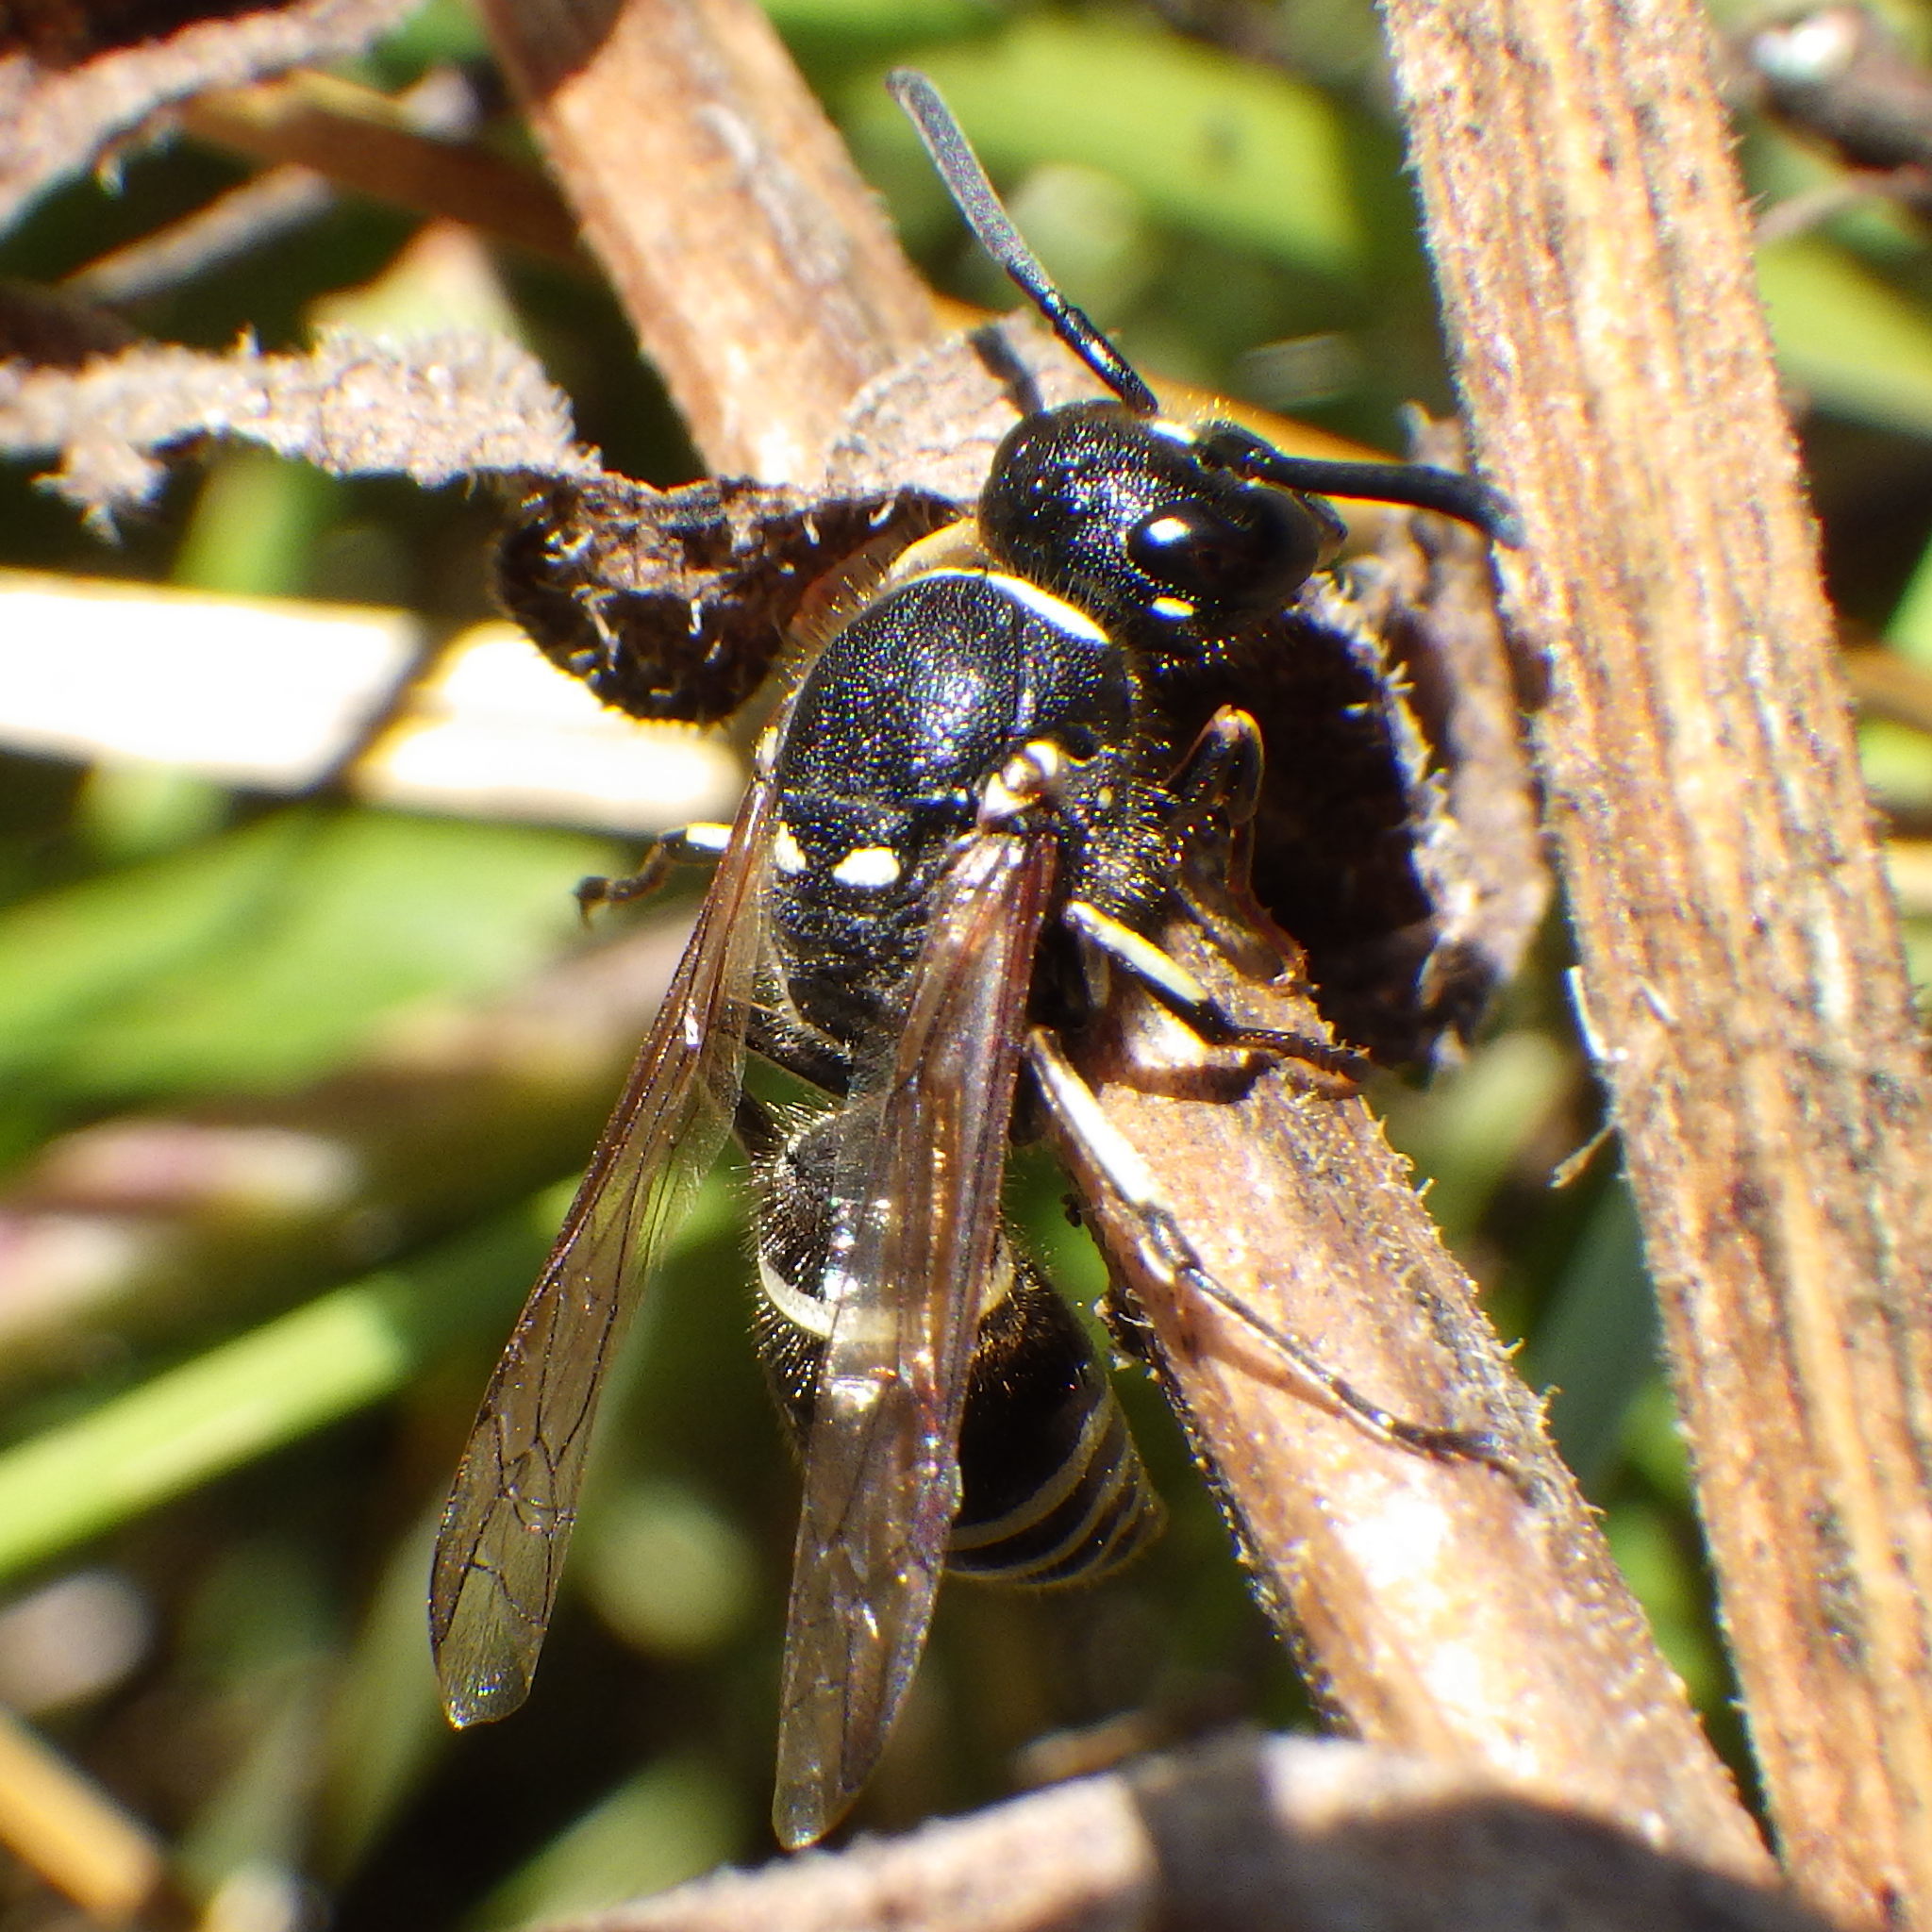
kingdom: Animalia
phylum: Arthropoda
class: Insecta
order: Hymenoptera
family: Vespidae
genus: Ancistrocerus
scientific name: Ancistrocerus albophaleratus
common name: White-banded potter wasp
